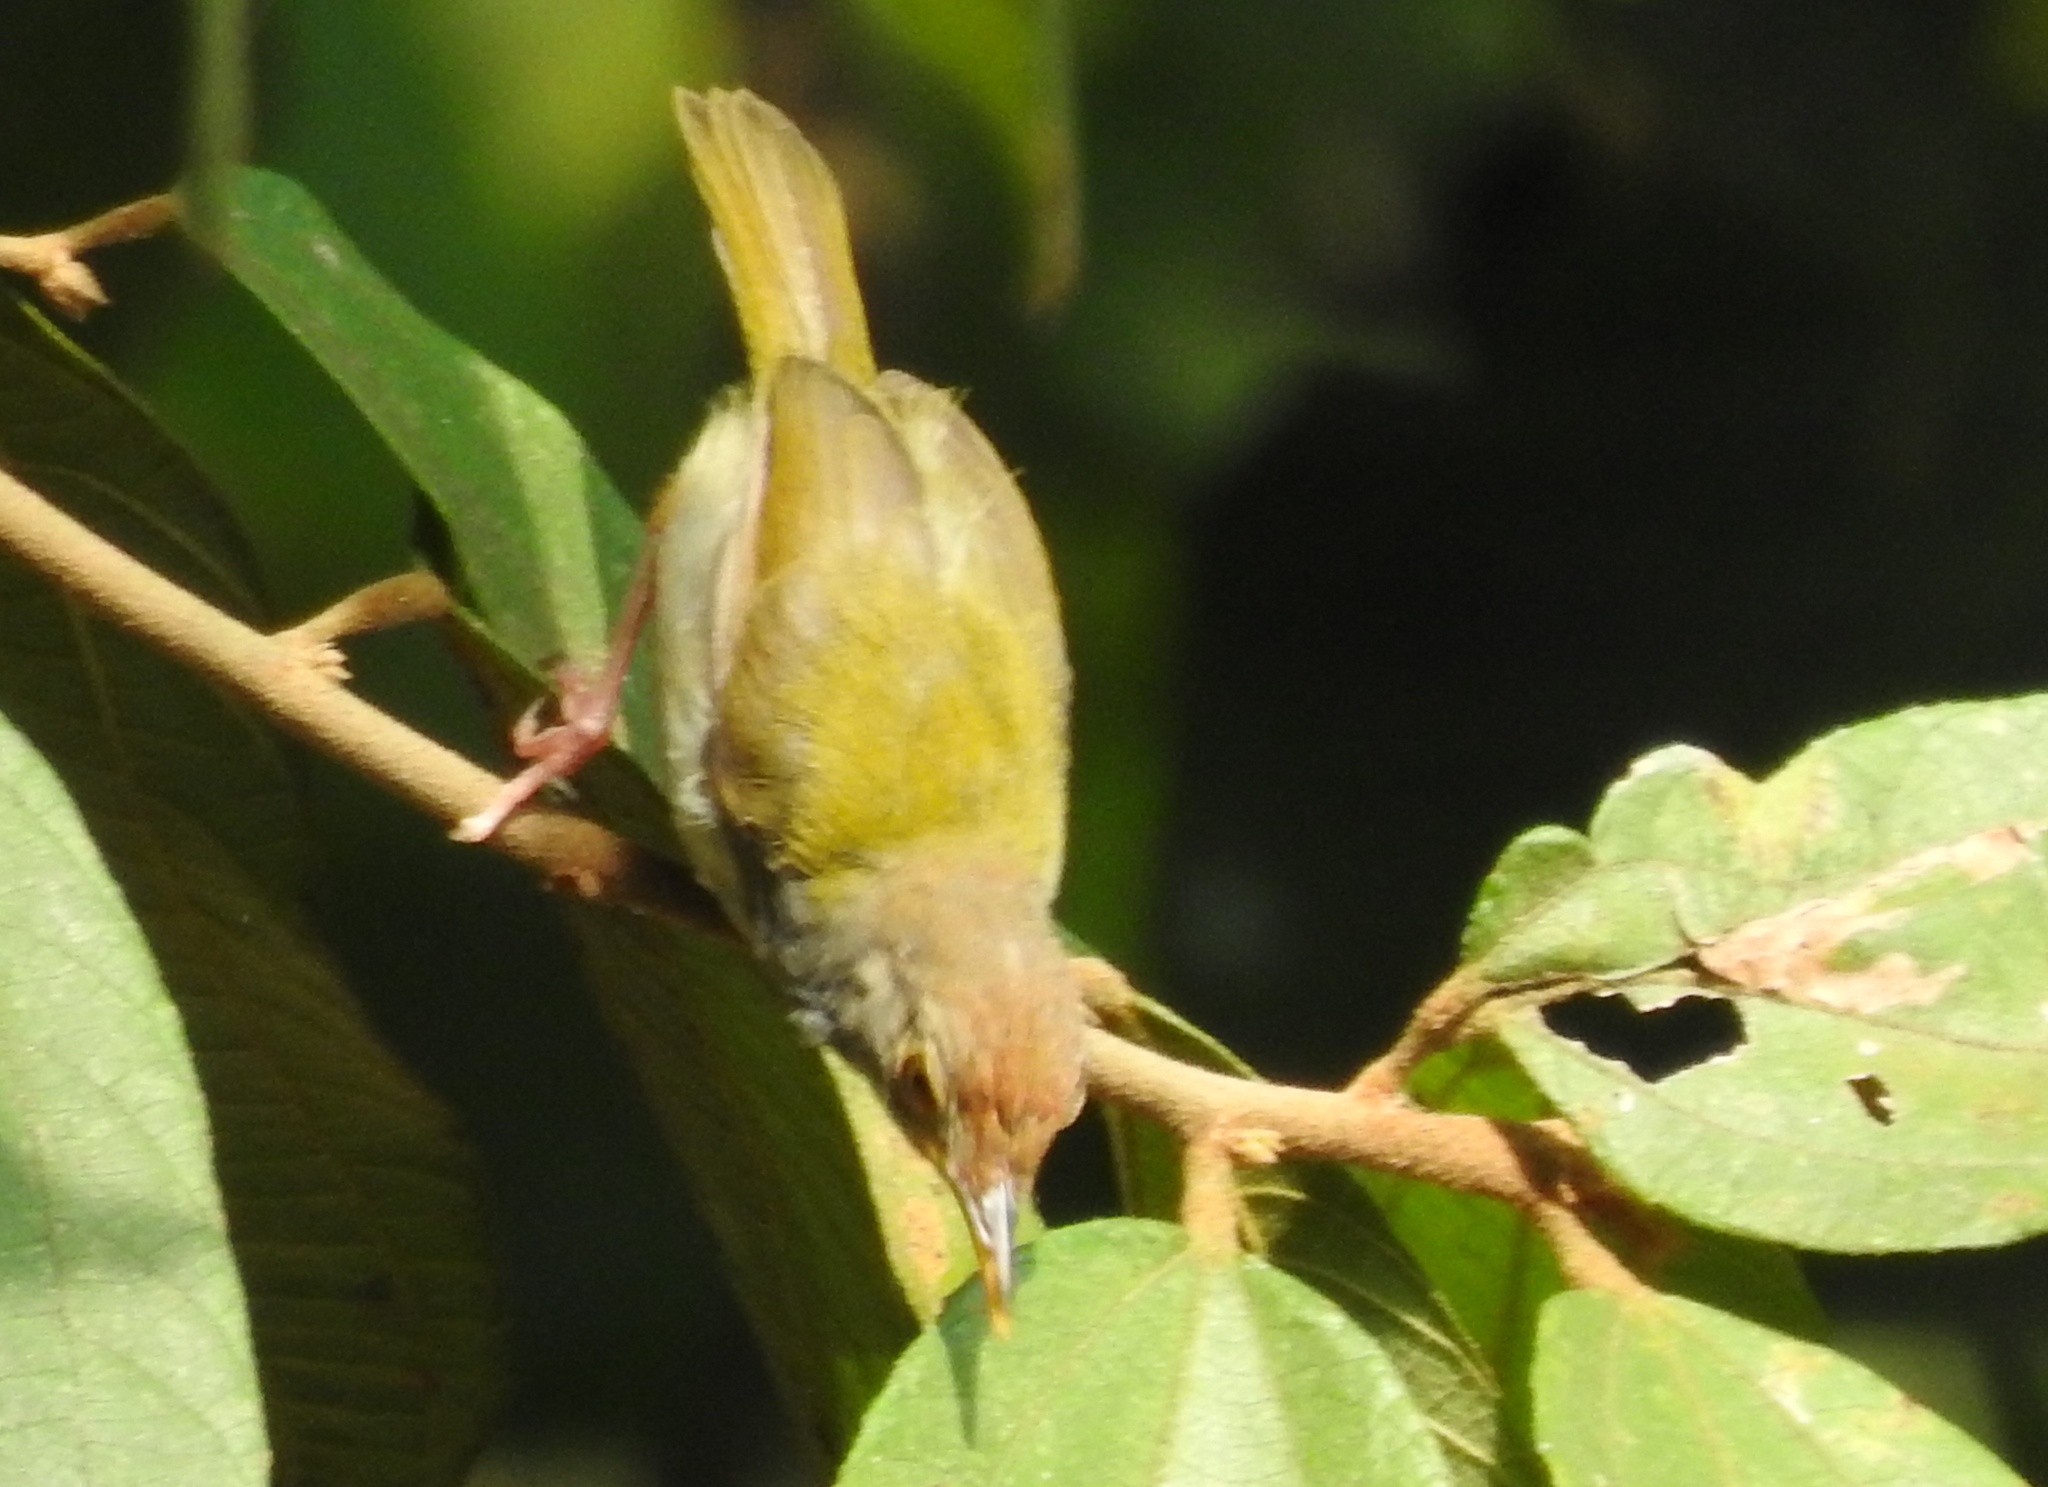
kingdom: Animalia
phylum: Chordata
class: Aves
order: Passeriformes
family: Cisticolidae
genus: Orthotomus
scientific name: Orthotomus sutorius
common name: Common tailorbird
